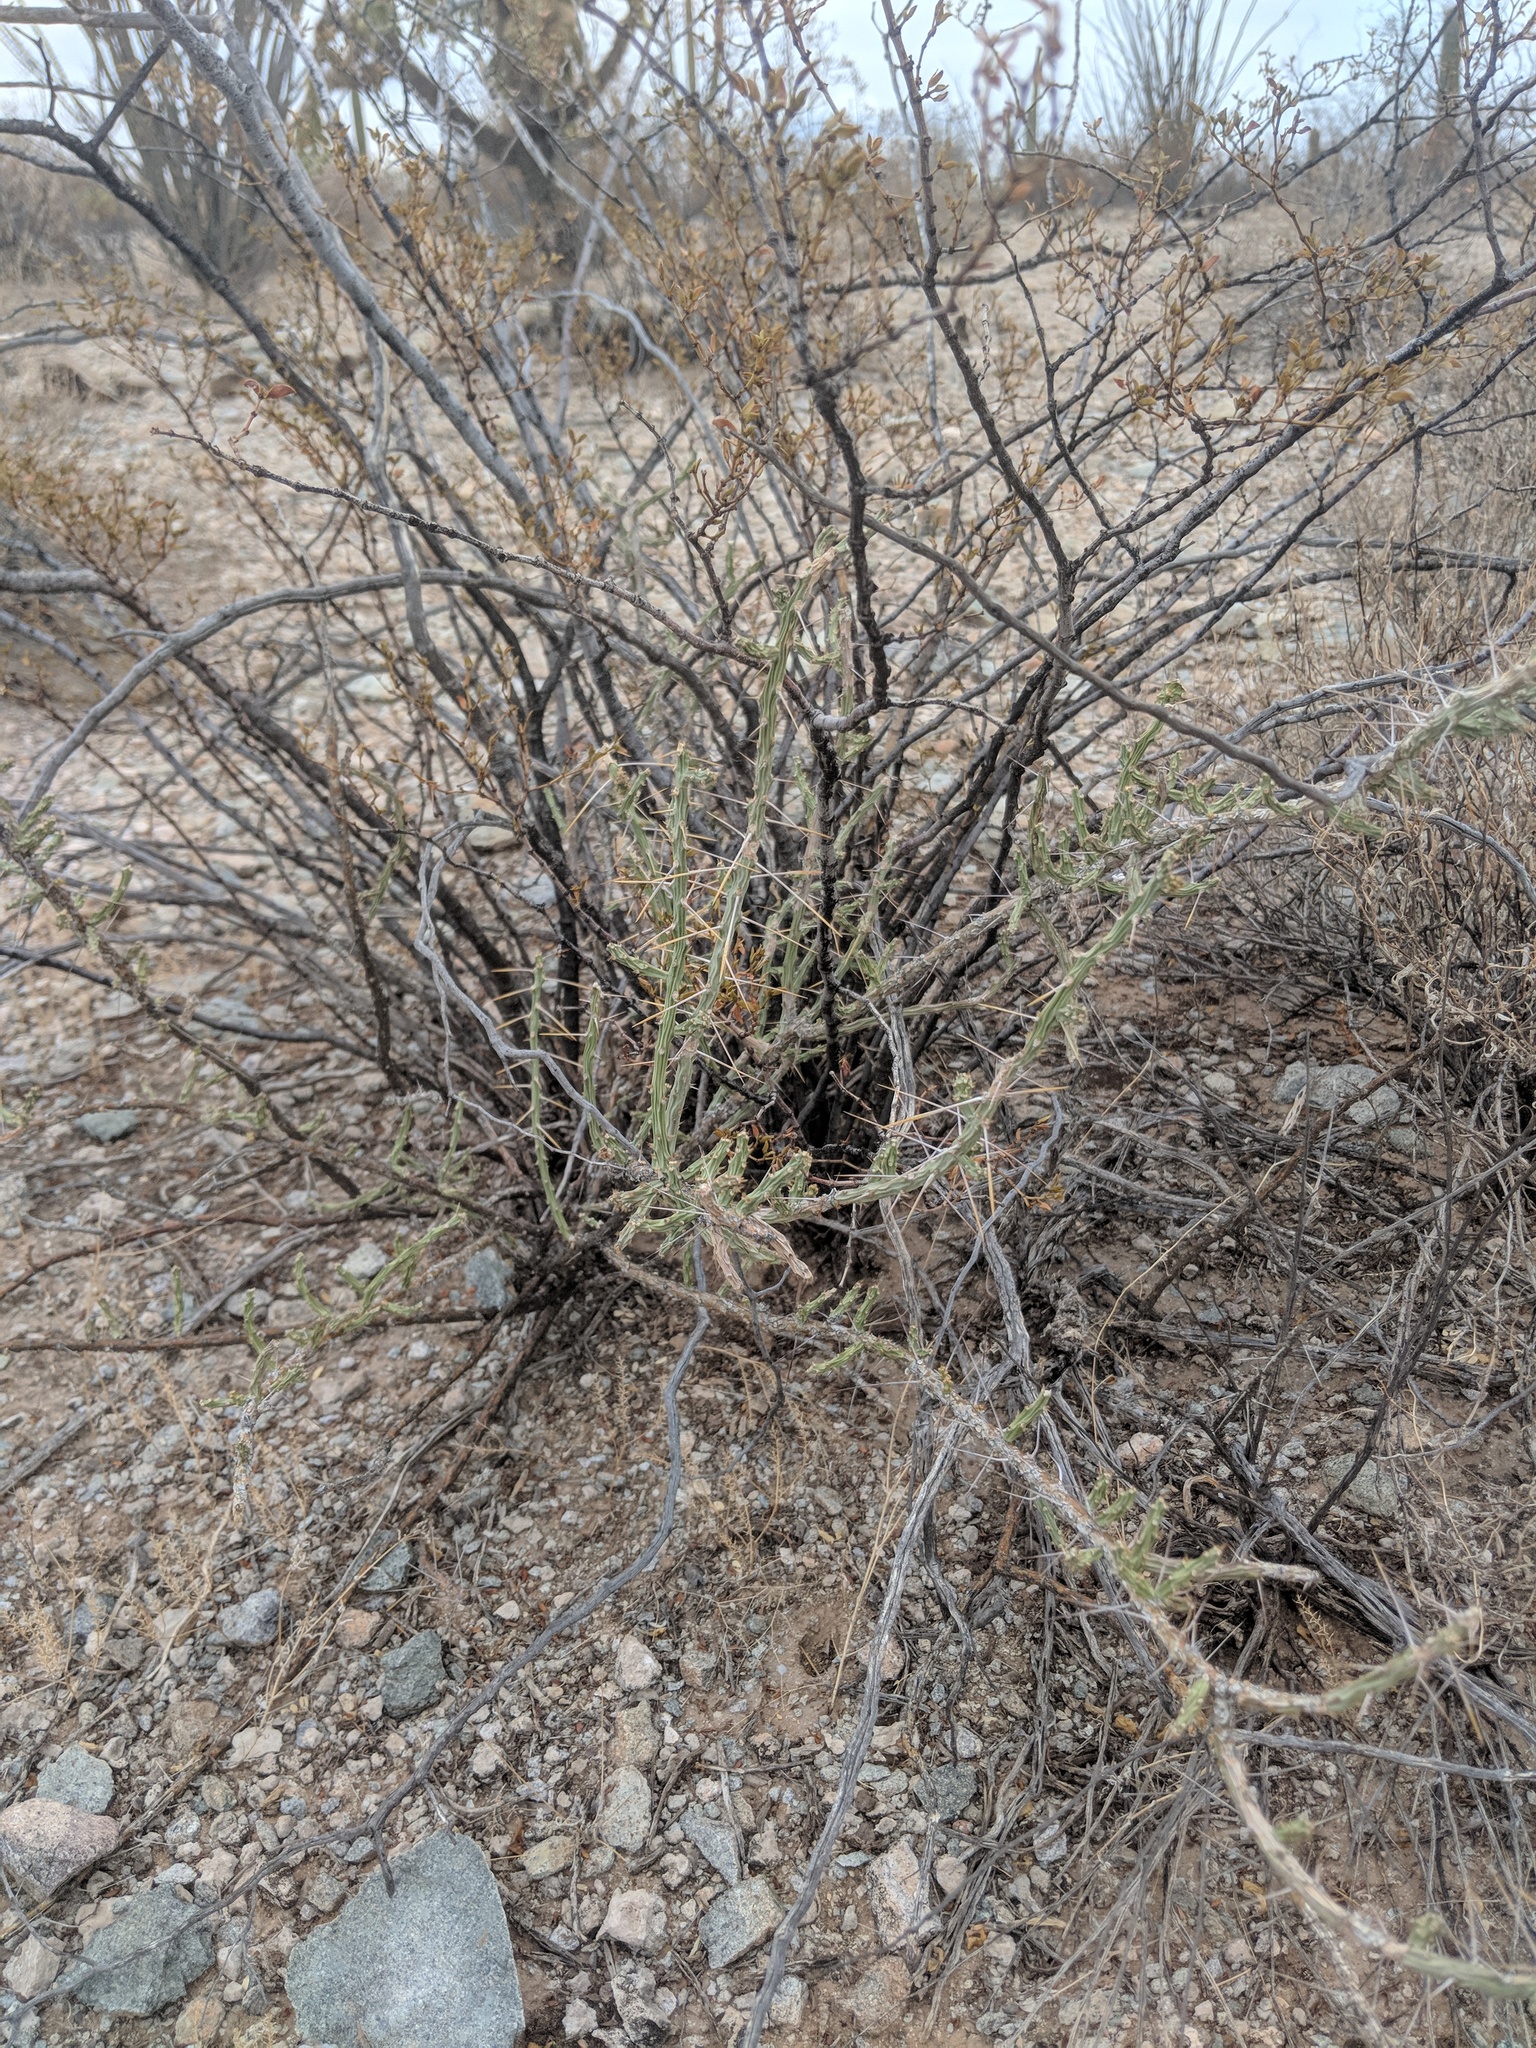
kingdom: Plantae
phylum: Tracheophyta
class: Magnoliopsida
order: Caryophyllales
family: Cactaceae
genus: Cylindropuntia
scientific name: Cylindropuntia leptocaulis
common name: Christmas cactus
